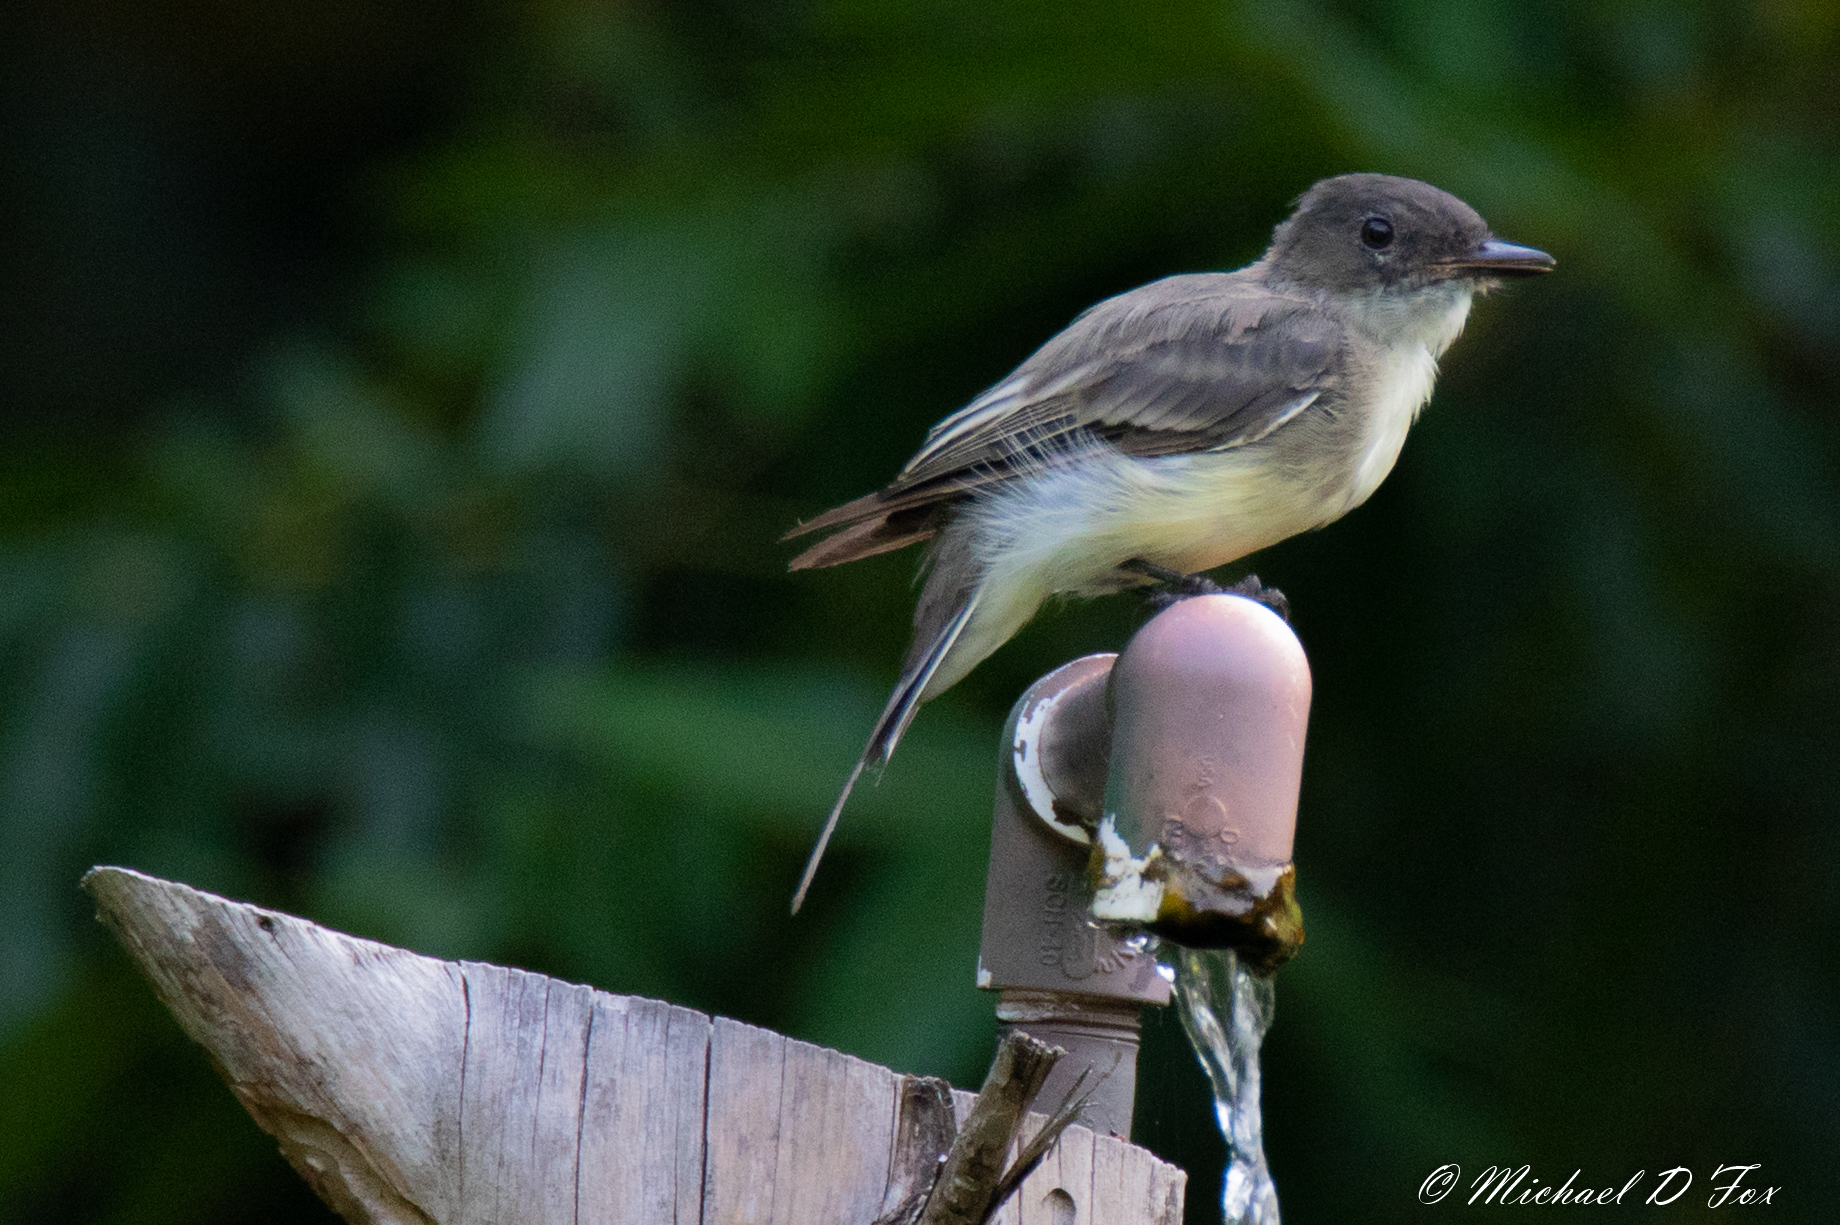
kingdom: Animalia
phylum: Chordata
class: Aves
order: Passeriformes
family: Tyrannidae
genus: Sayornis
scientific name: Sayornis phoebe
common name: Eastern phoebe
